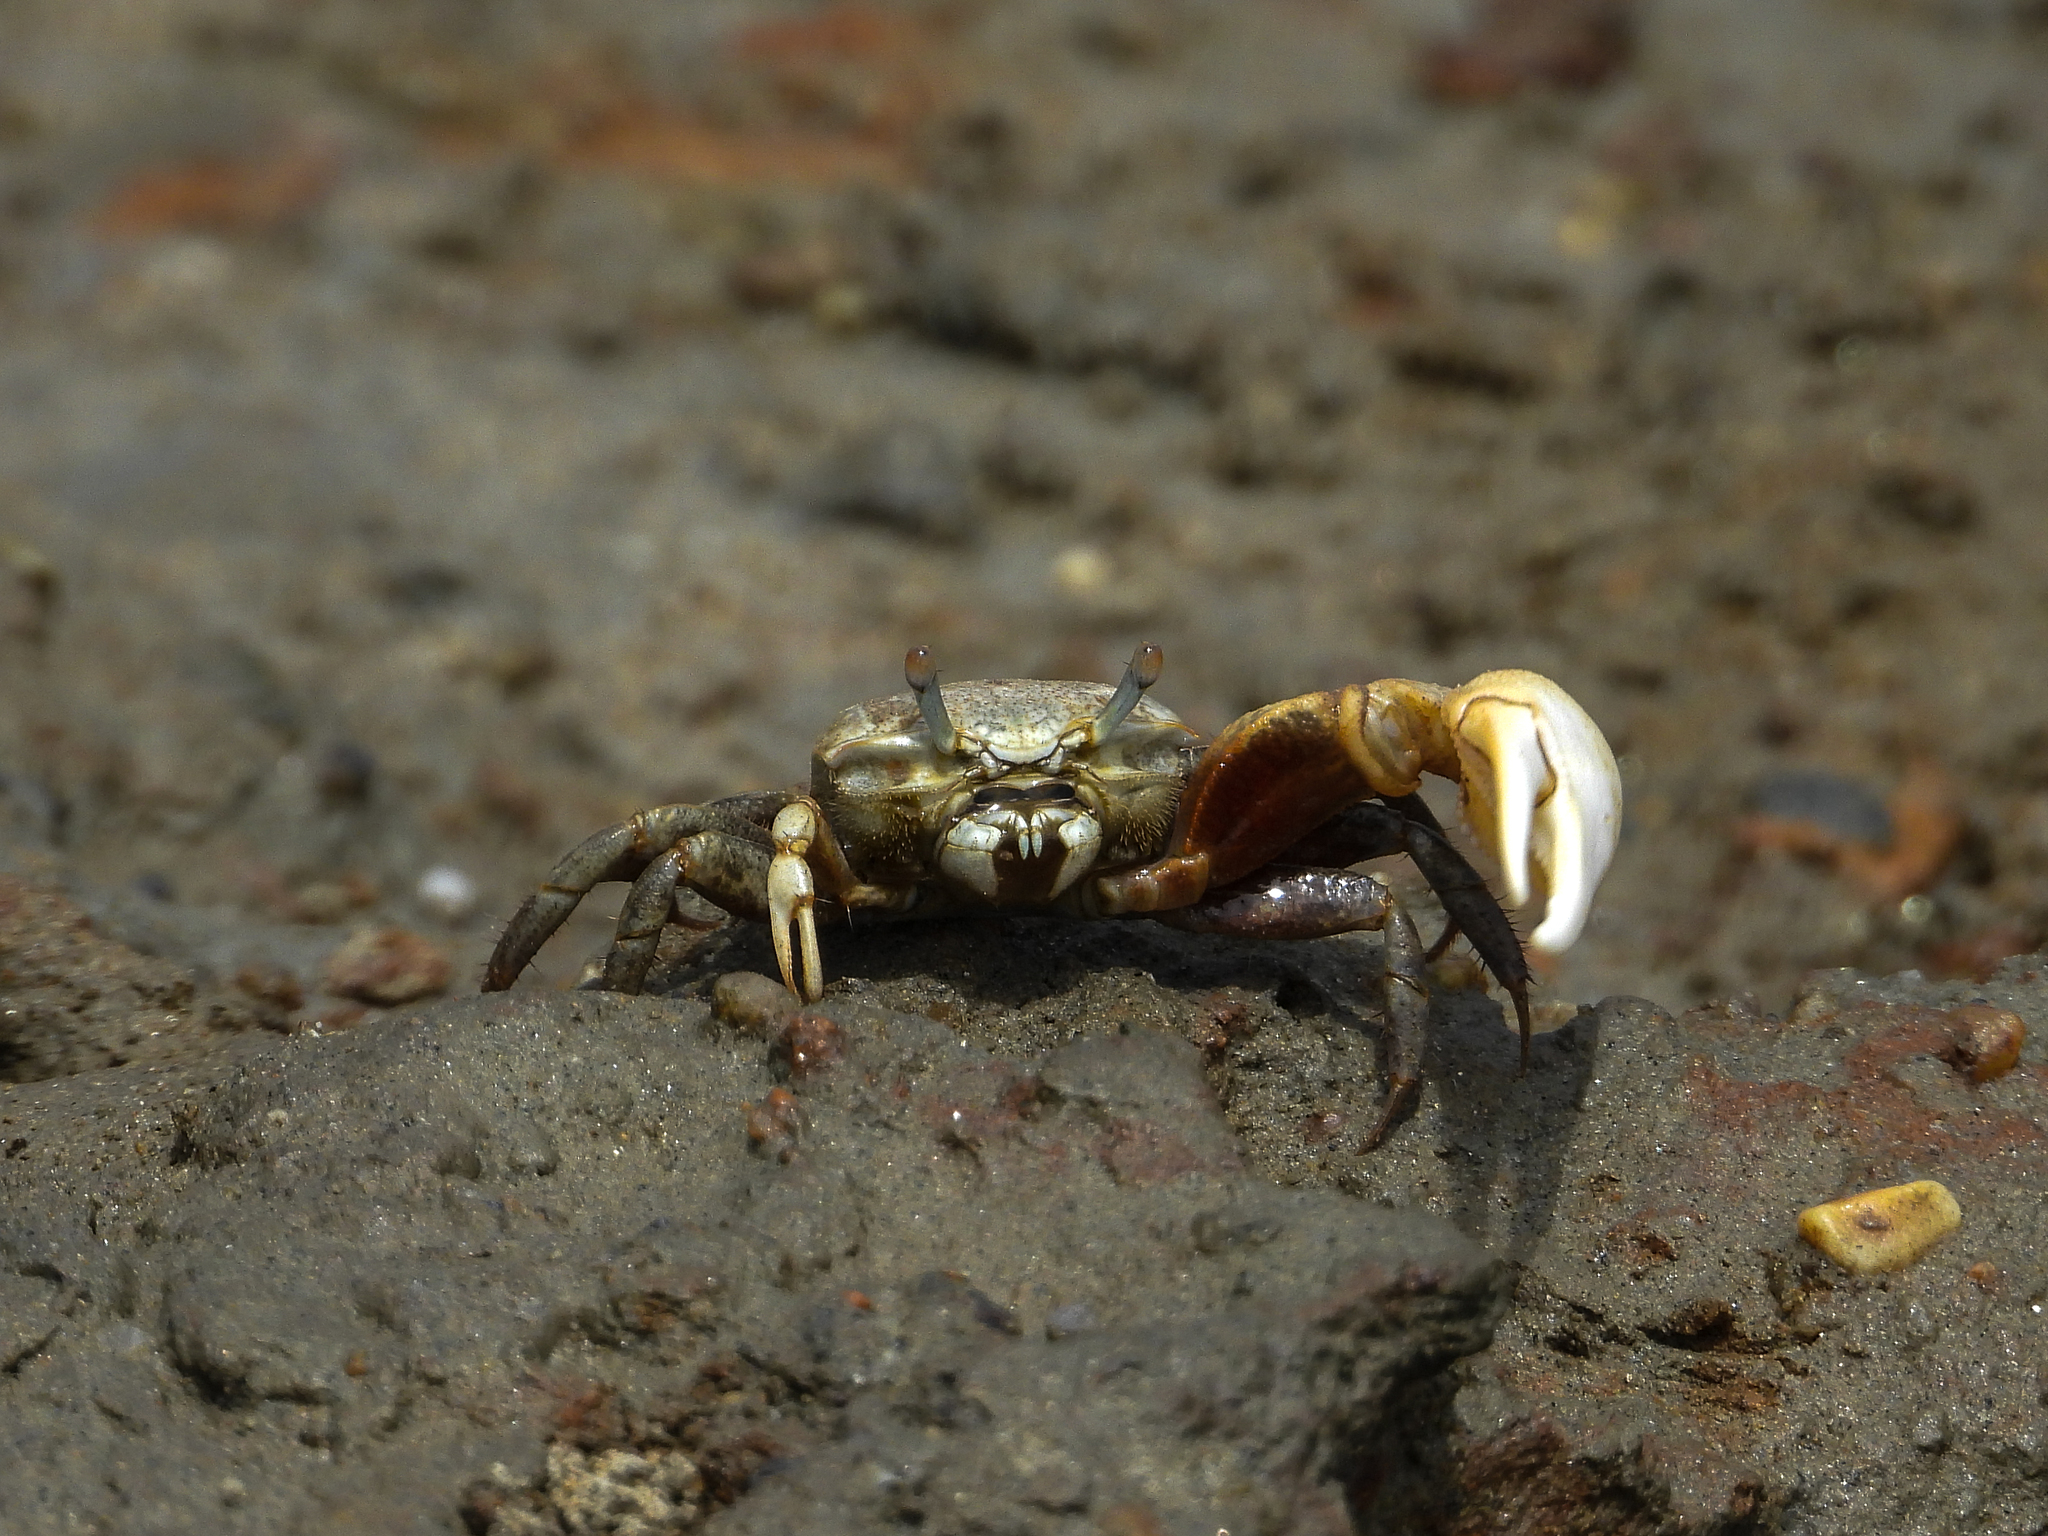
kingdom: Animalia
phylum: Arthropoda
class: Malacostraca
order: Decapoda
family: Ocypodidae
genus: Leptuca
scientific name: Leptuca crenulata
